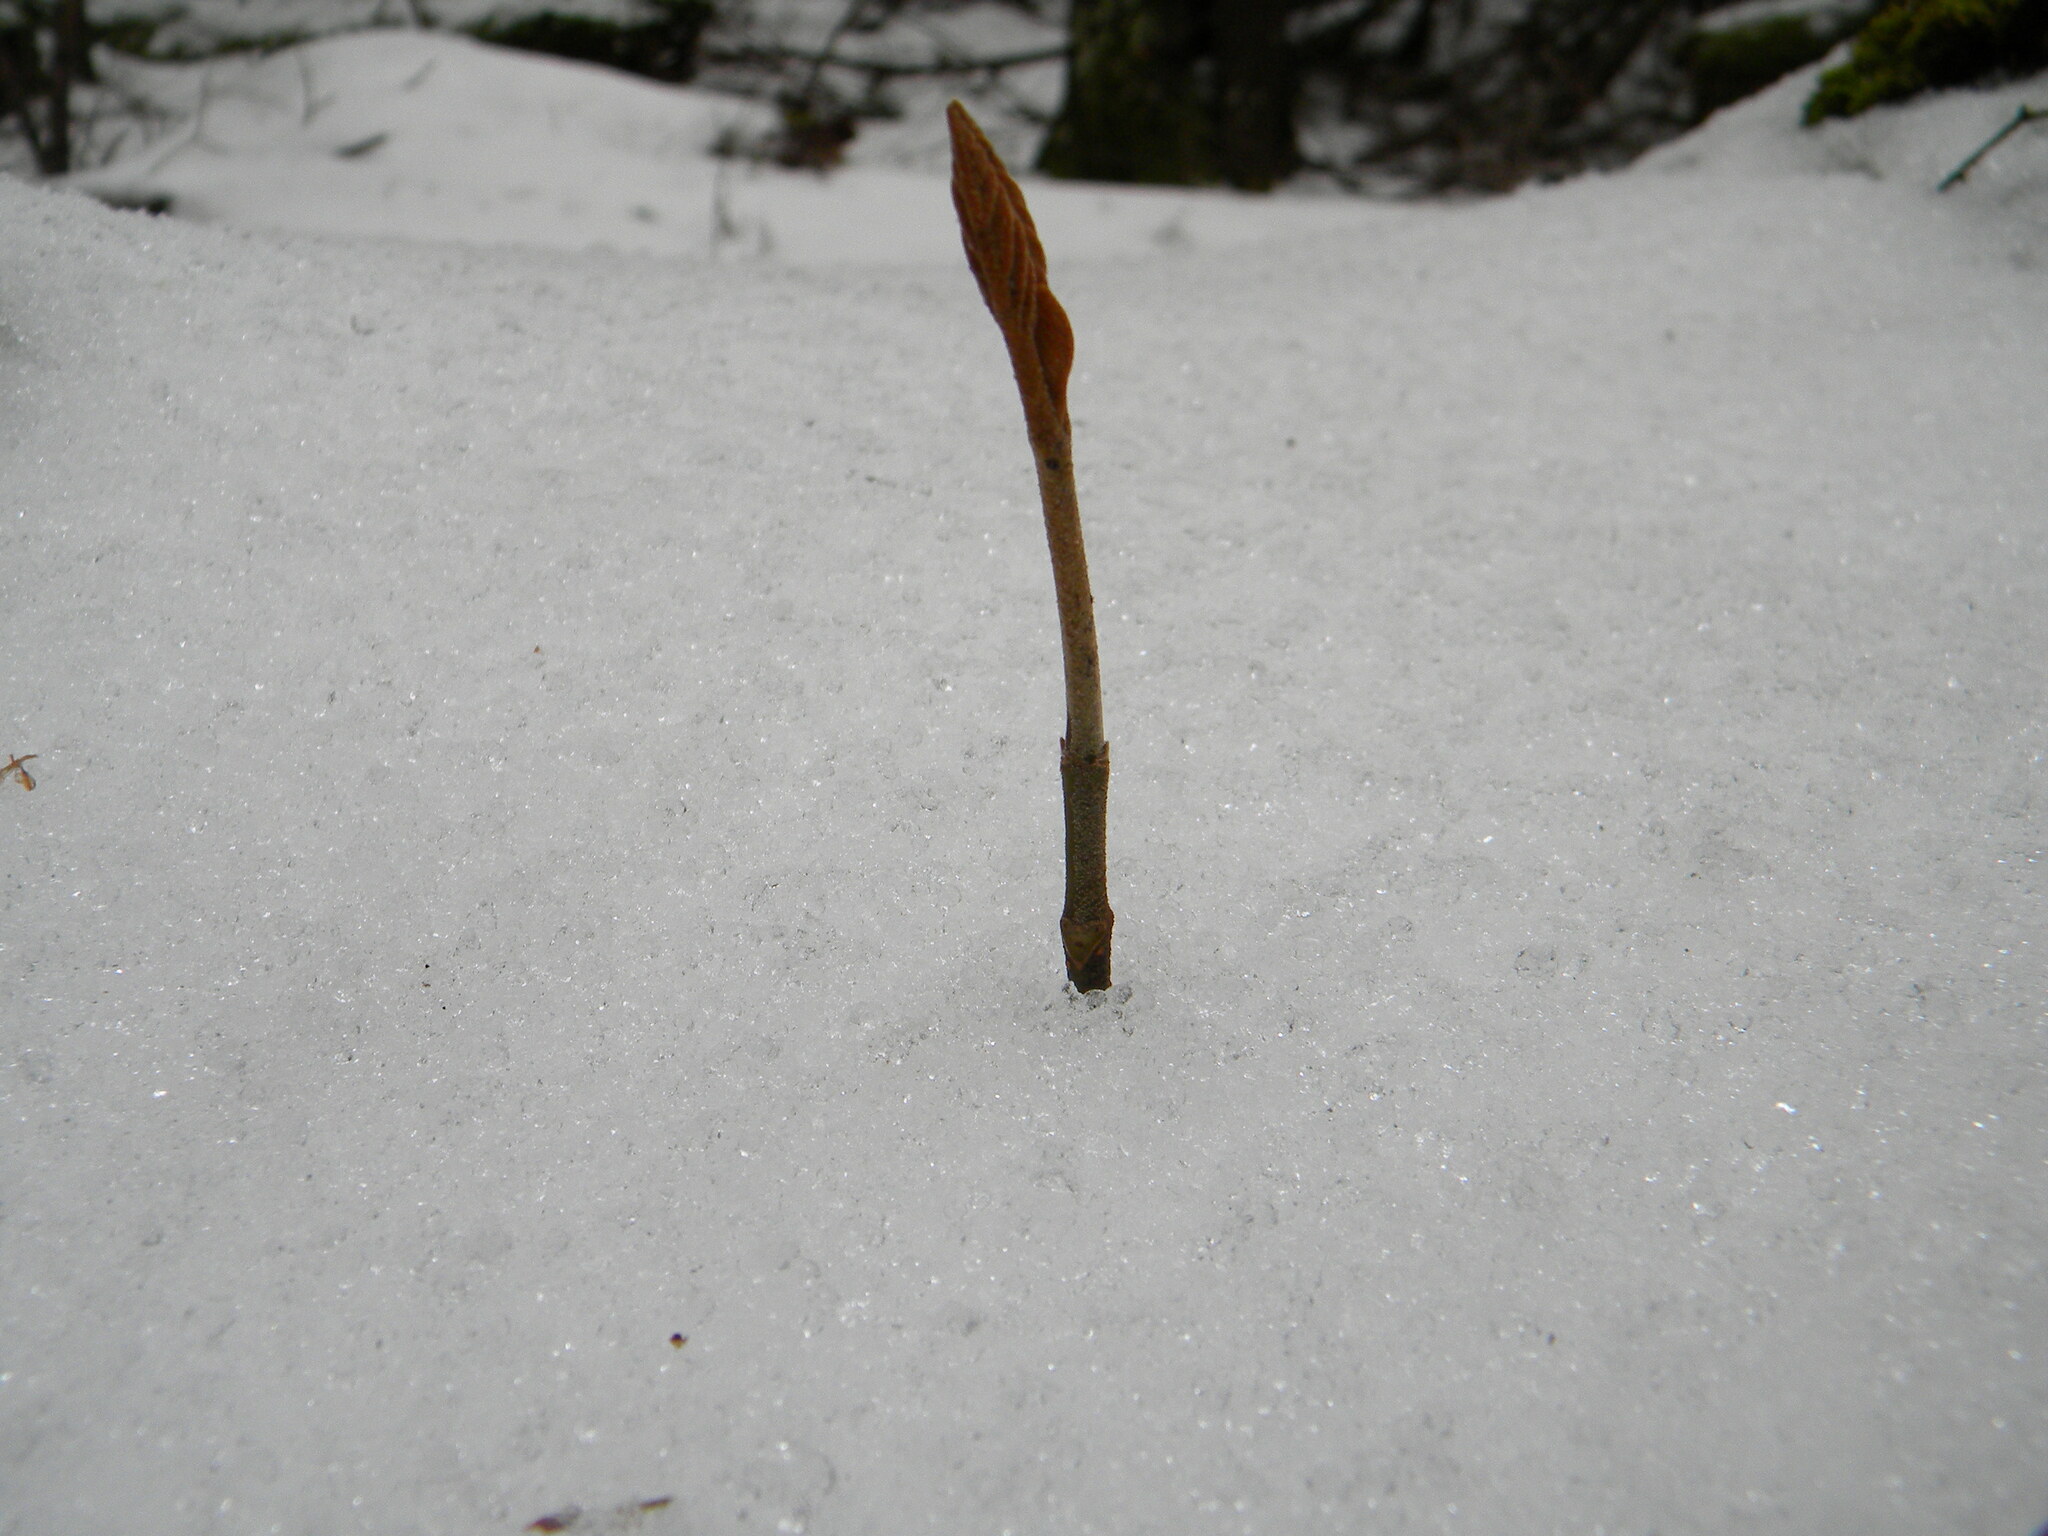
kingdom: Plantae
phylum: Tracheophyta
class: Magnoliopsida
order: Dipsacales
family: Viburnaceae
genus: Viburnum
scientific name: Viburnum lantanoides
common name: Hobblebush
